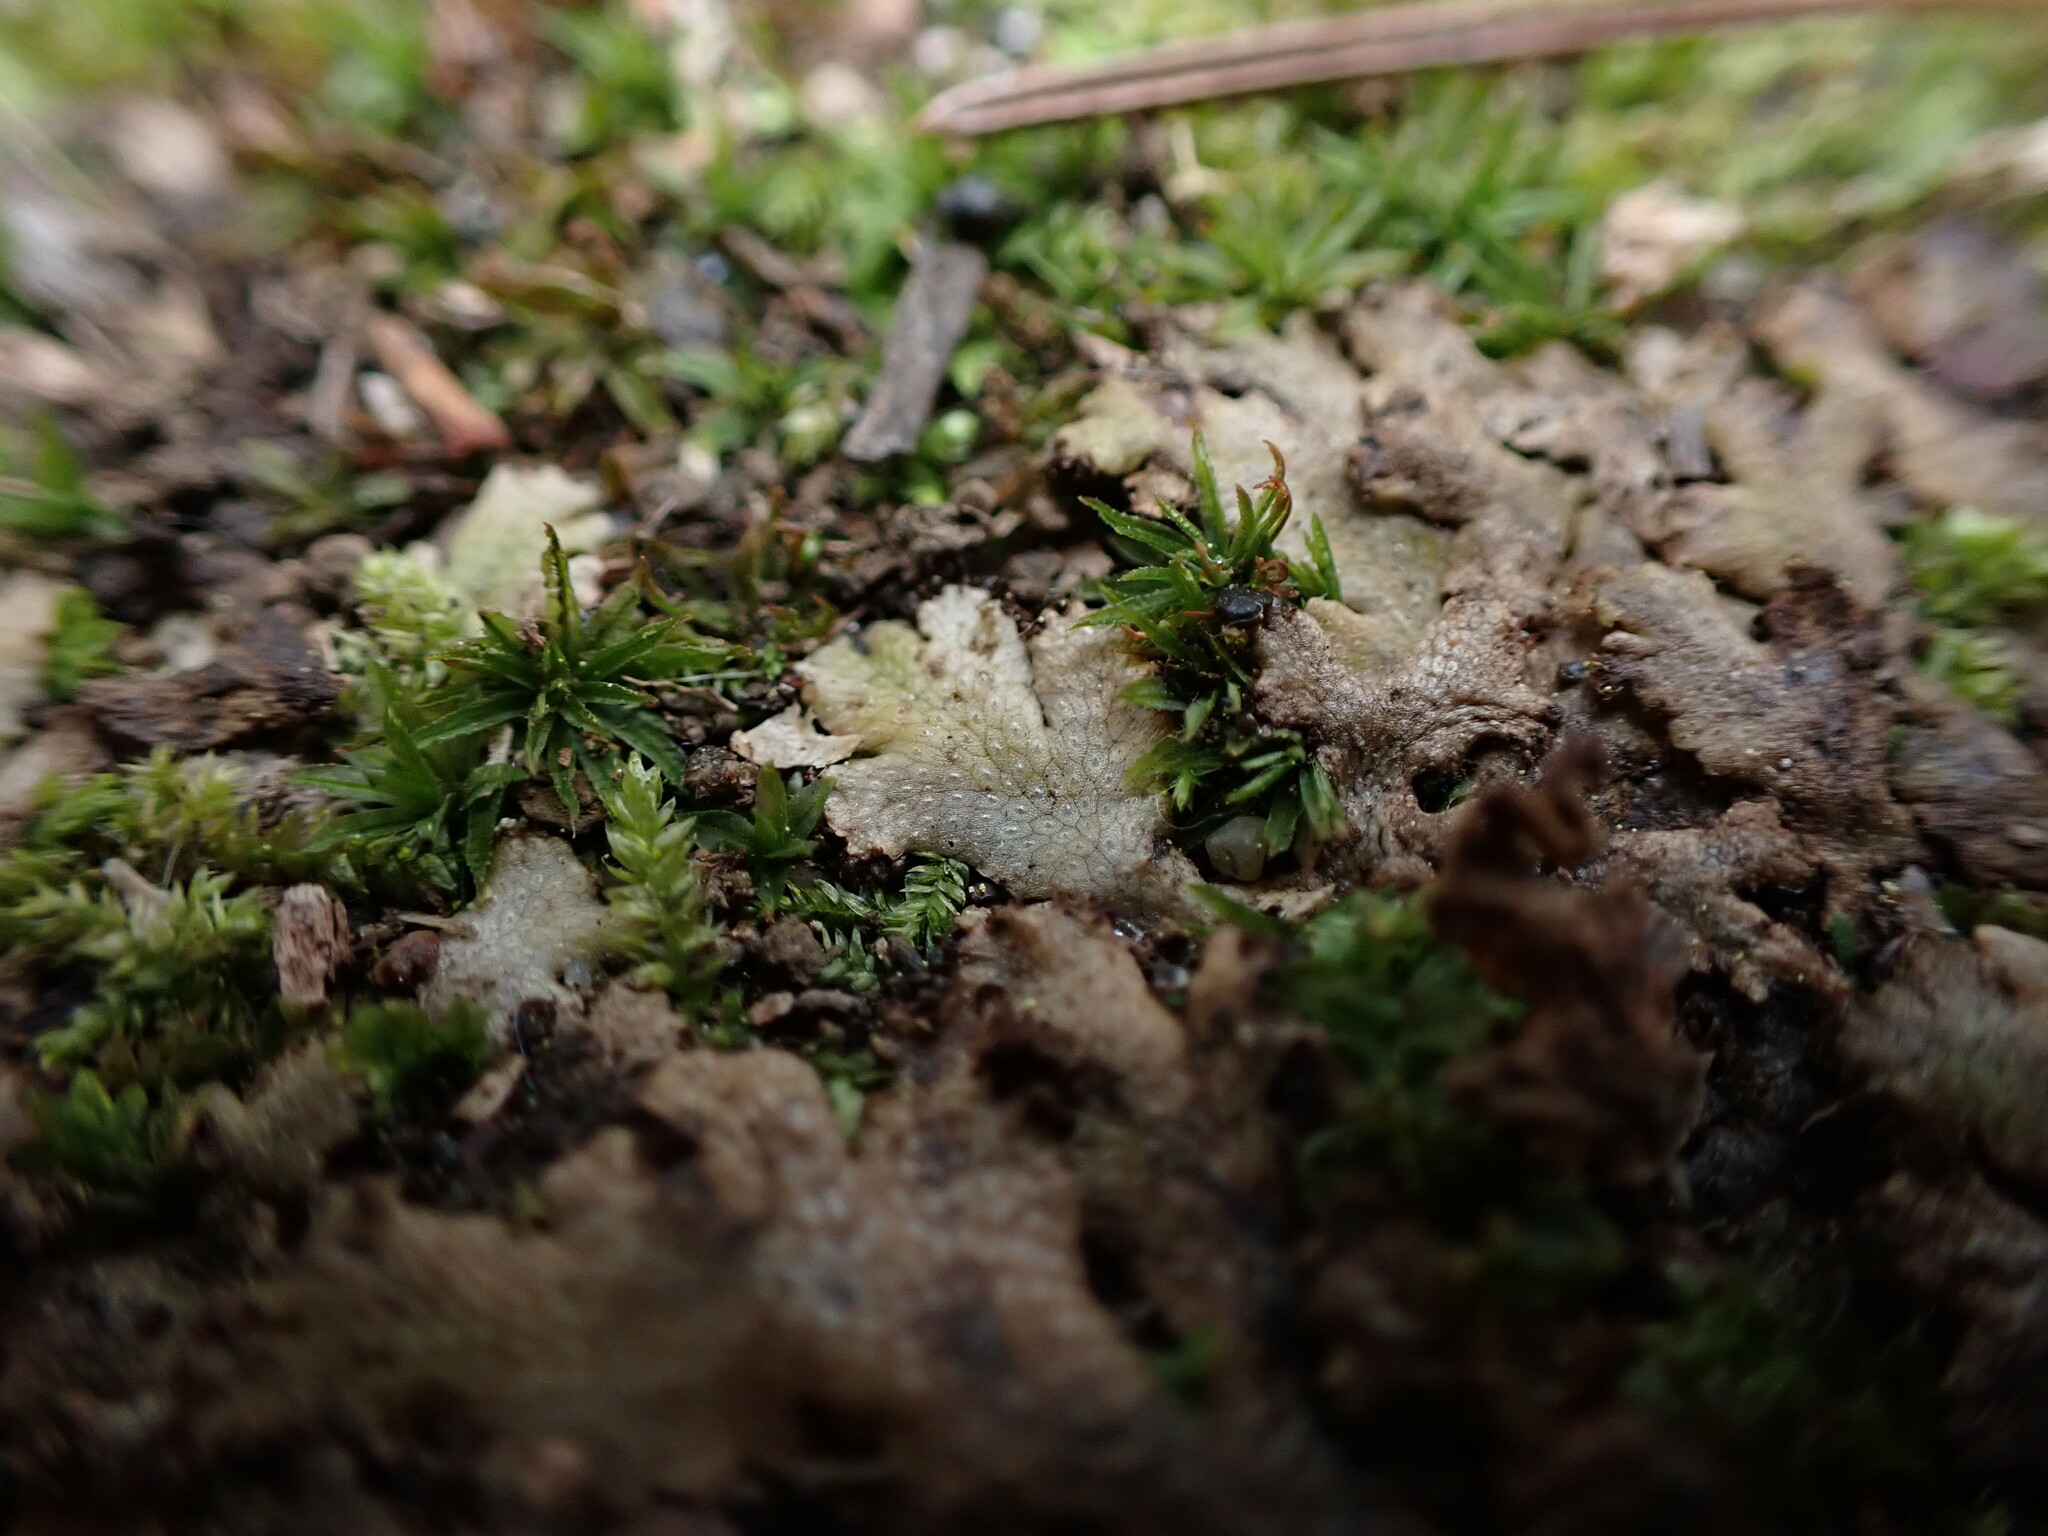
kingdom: Plantae
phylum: Marchantiophyta
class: Marchantiopsida
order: Marchantiales
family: Conocephalaceae
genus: Sandea
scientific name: Sandea japonica
